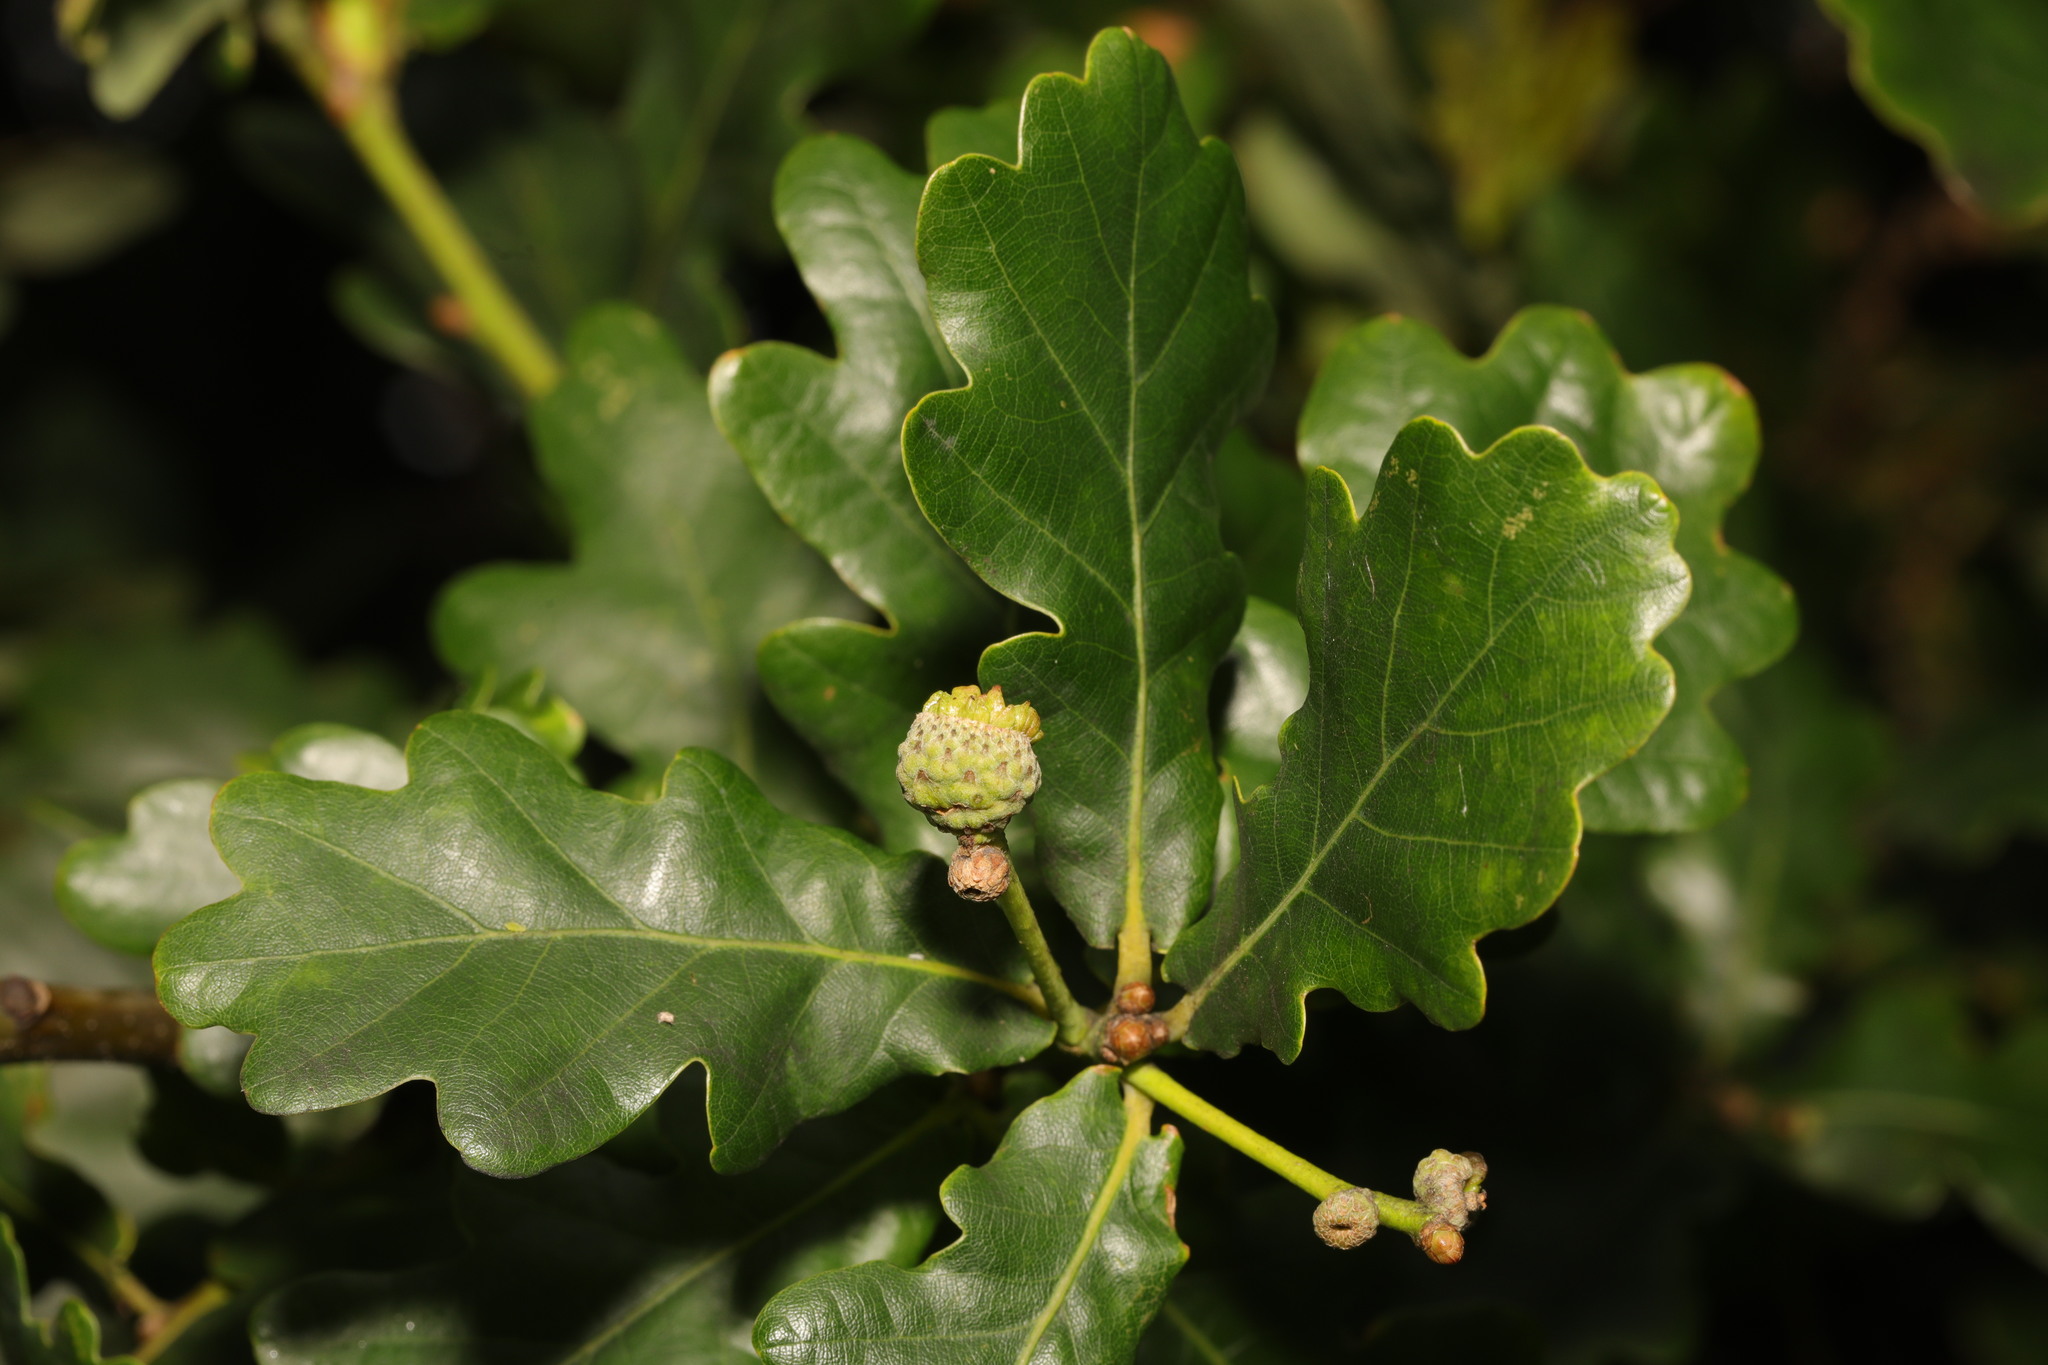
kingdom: Plantae
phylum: Tracheophyta
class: Magnoliopsida
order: Fagales
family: Fagaceae
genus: Quercus
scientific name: Quercus robur
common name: Pedunculate oak
